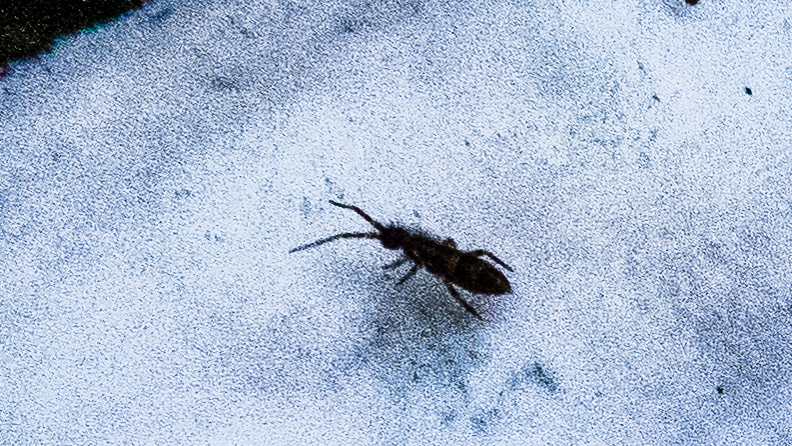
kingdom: Animalia
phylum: Arthropoda
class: Collembola
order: Entomobryomorpha
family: Orchesellidae
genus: Orchesella
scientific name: Orchesella cincta
